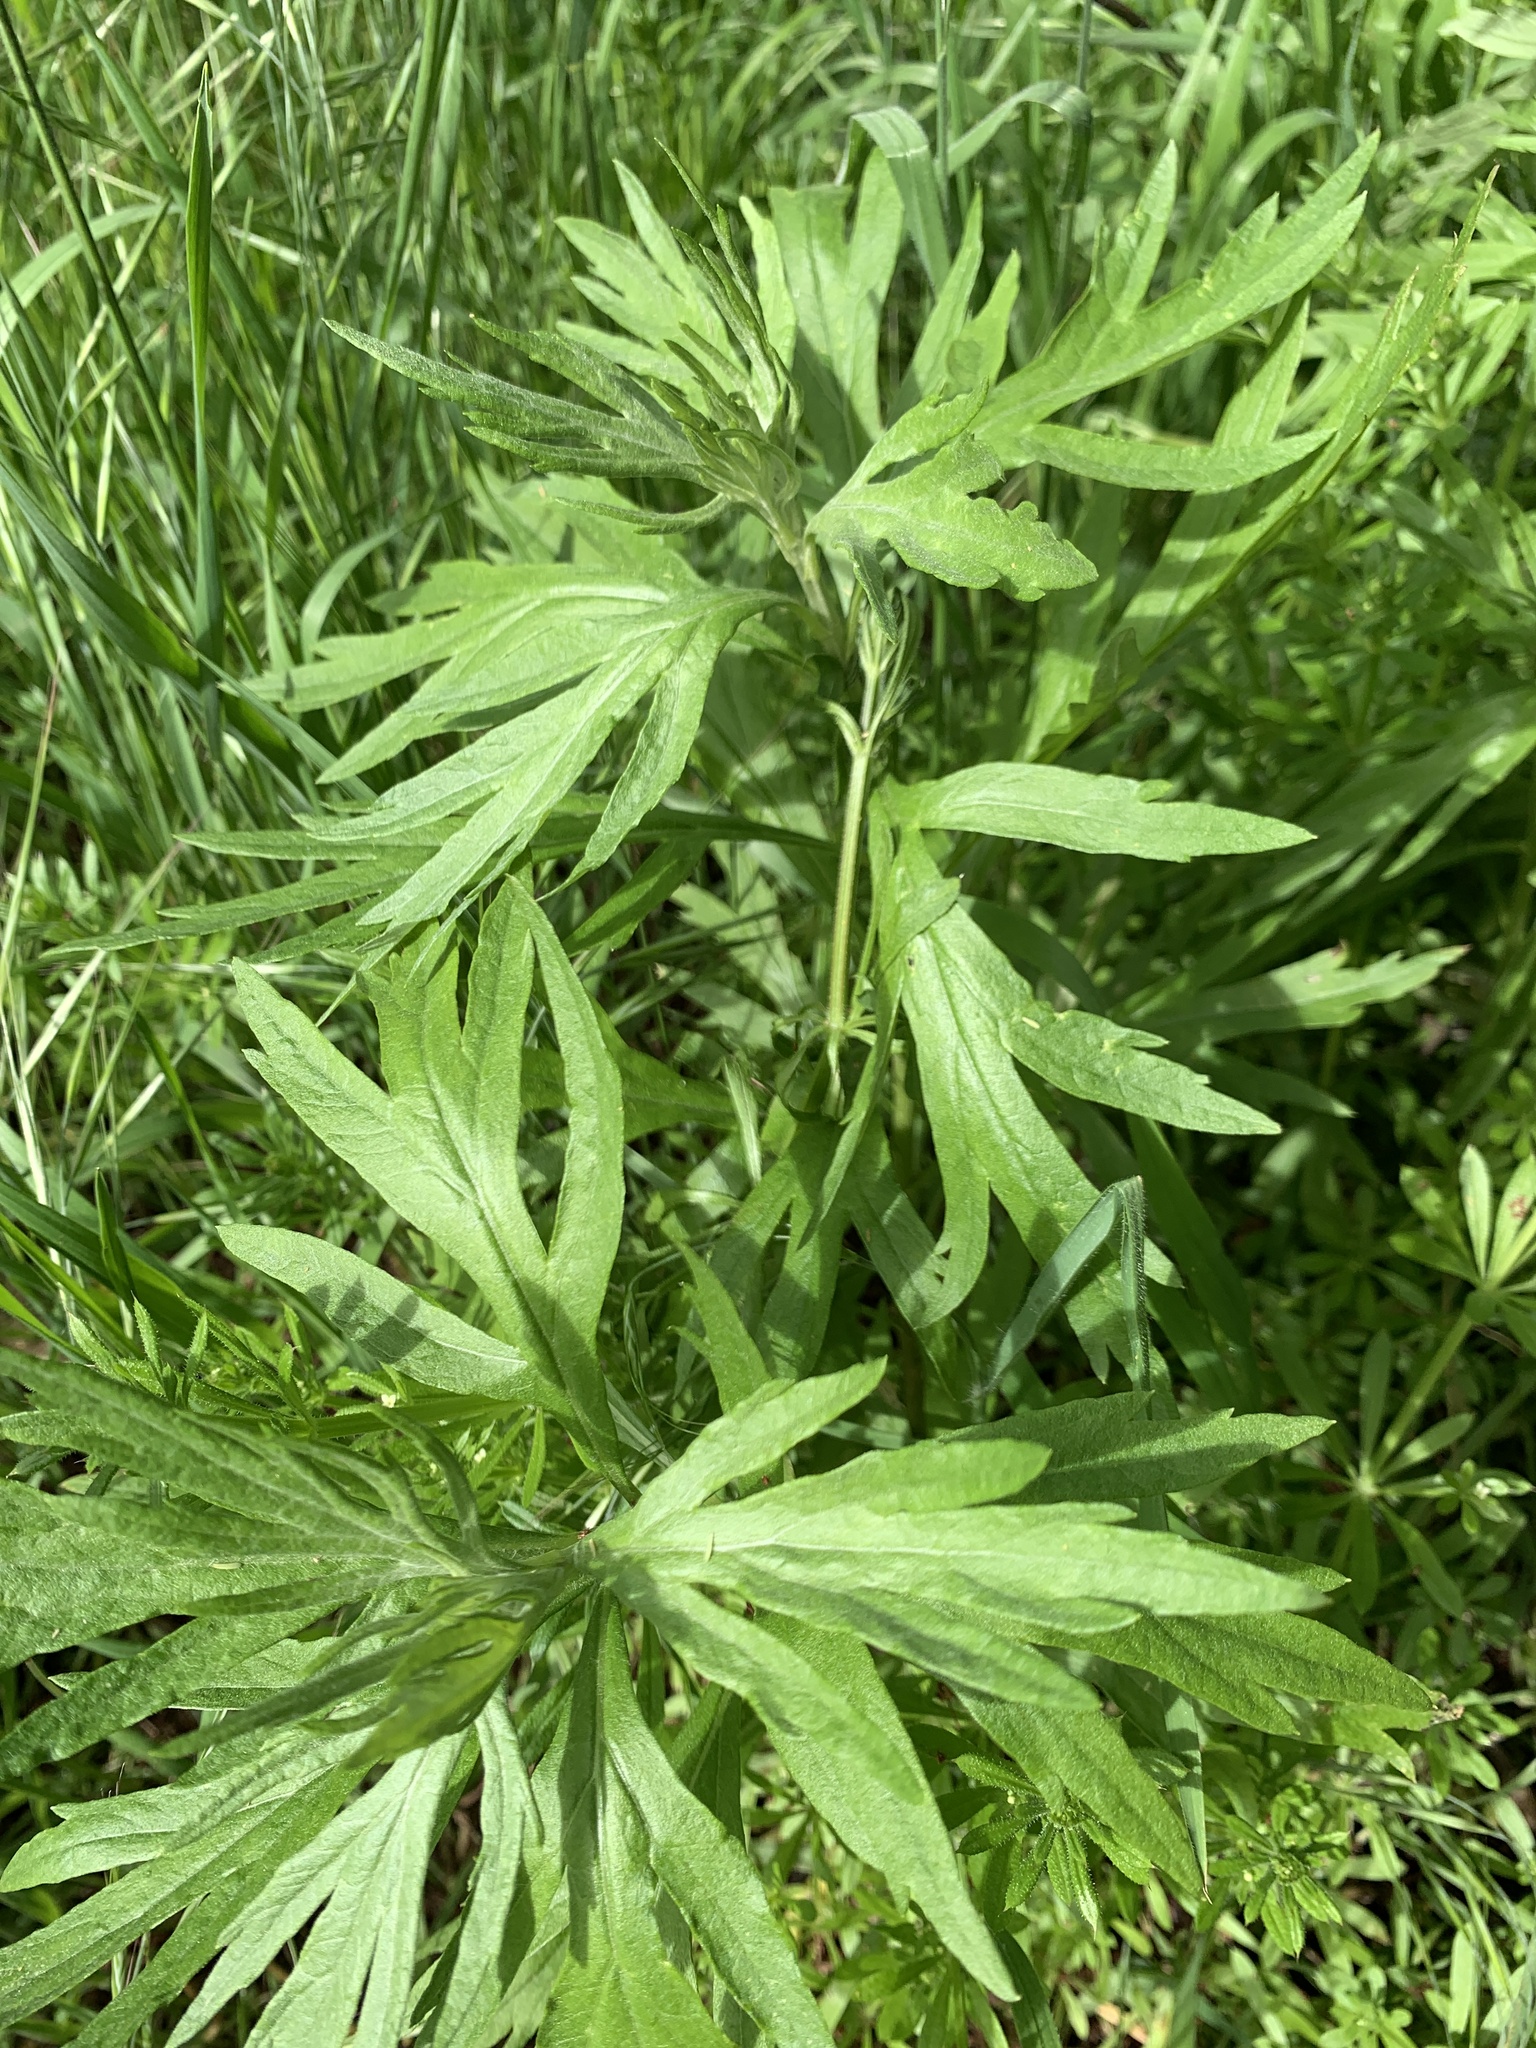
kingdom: Plantae
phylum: Tracheophyta
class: Magnoliopsida
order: Asterales
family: Asteraceae
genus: Artemisia
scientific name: Artemisia douglasiana
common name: Northwest mugwort
